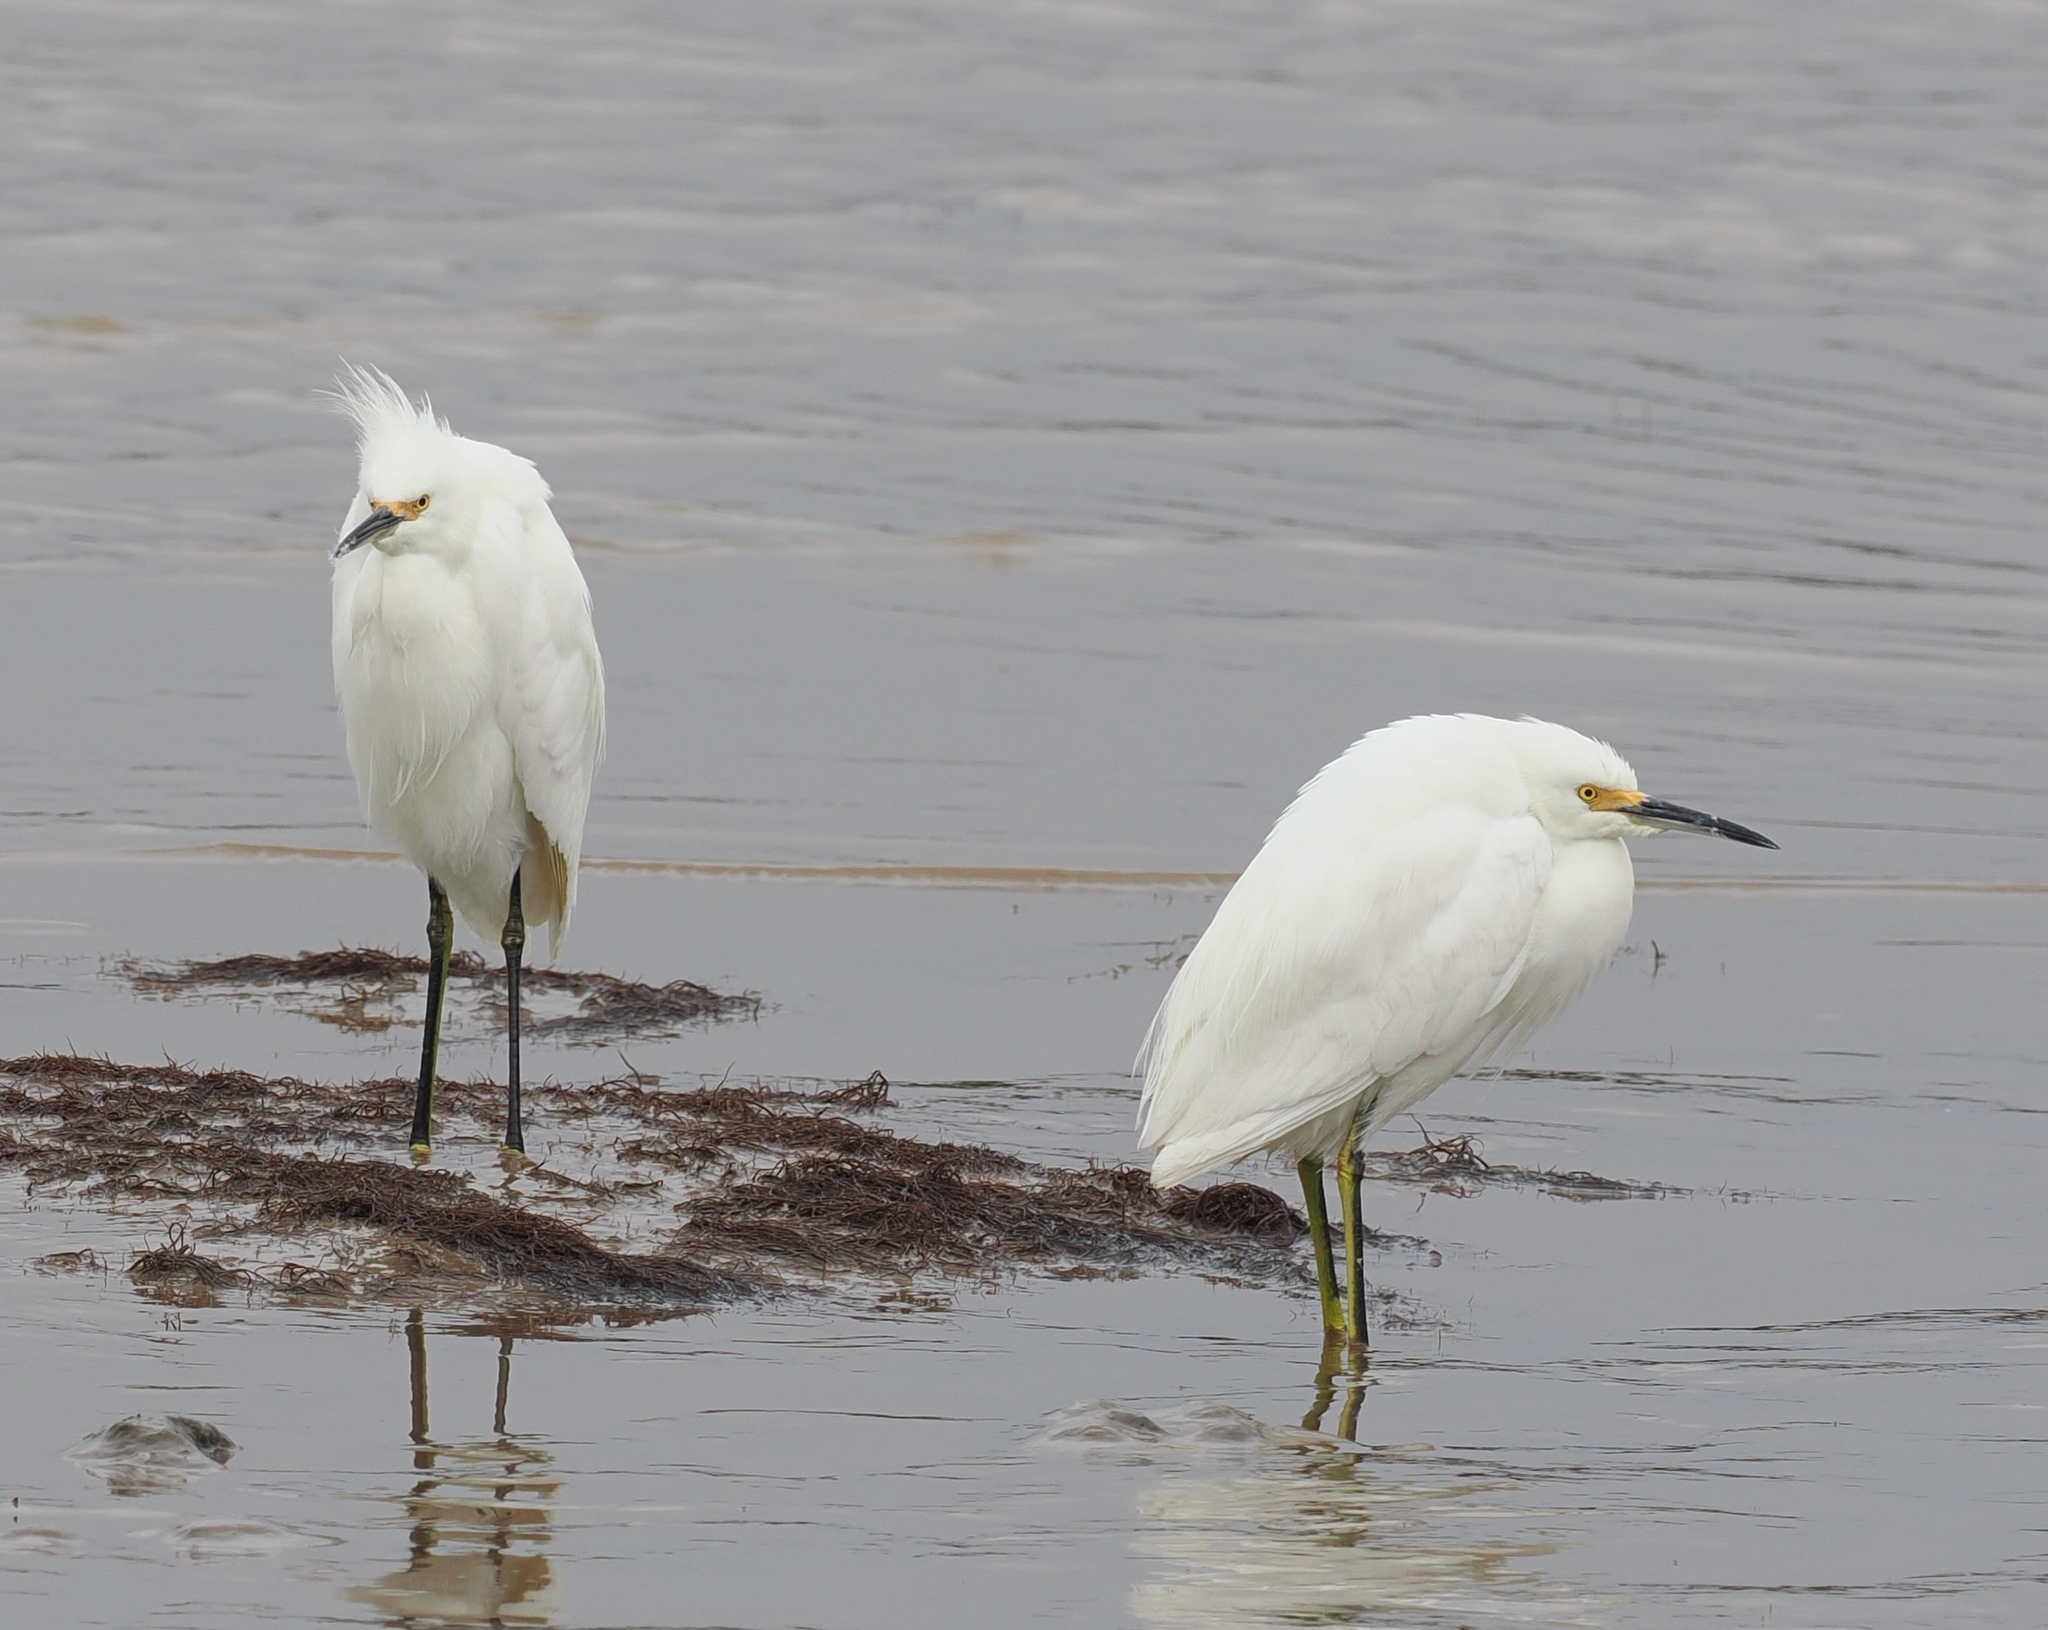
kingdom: Animalia
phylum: Chordata
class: Aves
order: Pelecaniformes
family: Ardeidae
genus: Egretta
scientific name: Egretta thula
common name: Snowy egret
